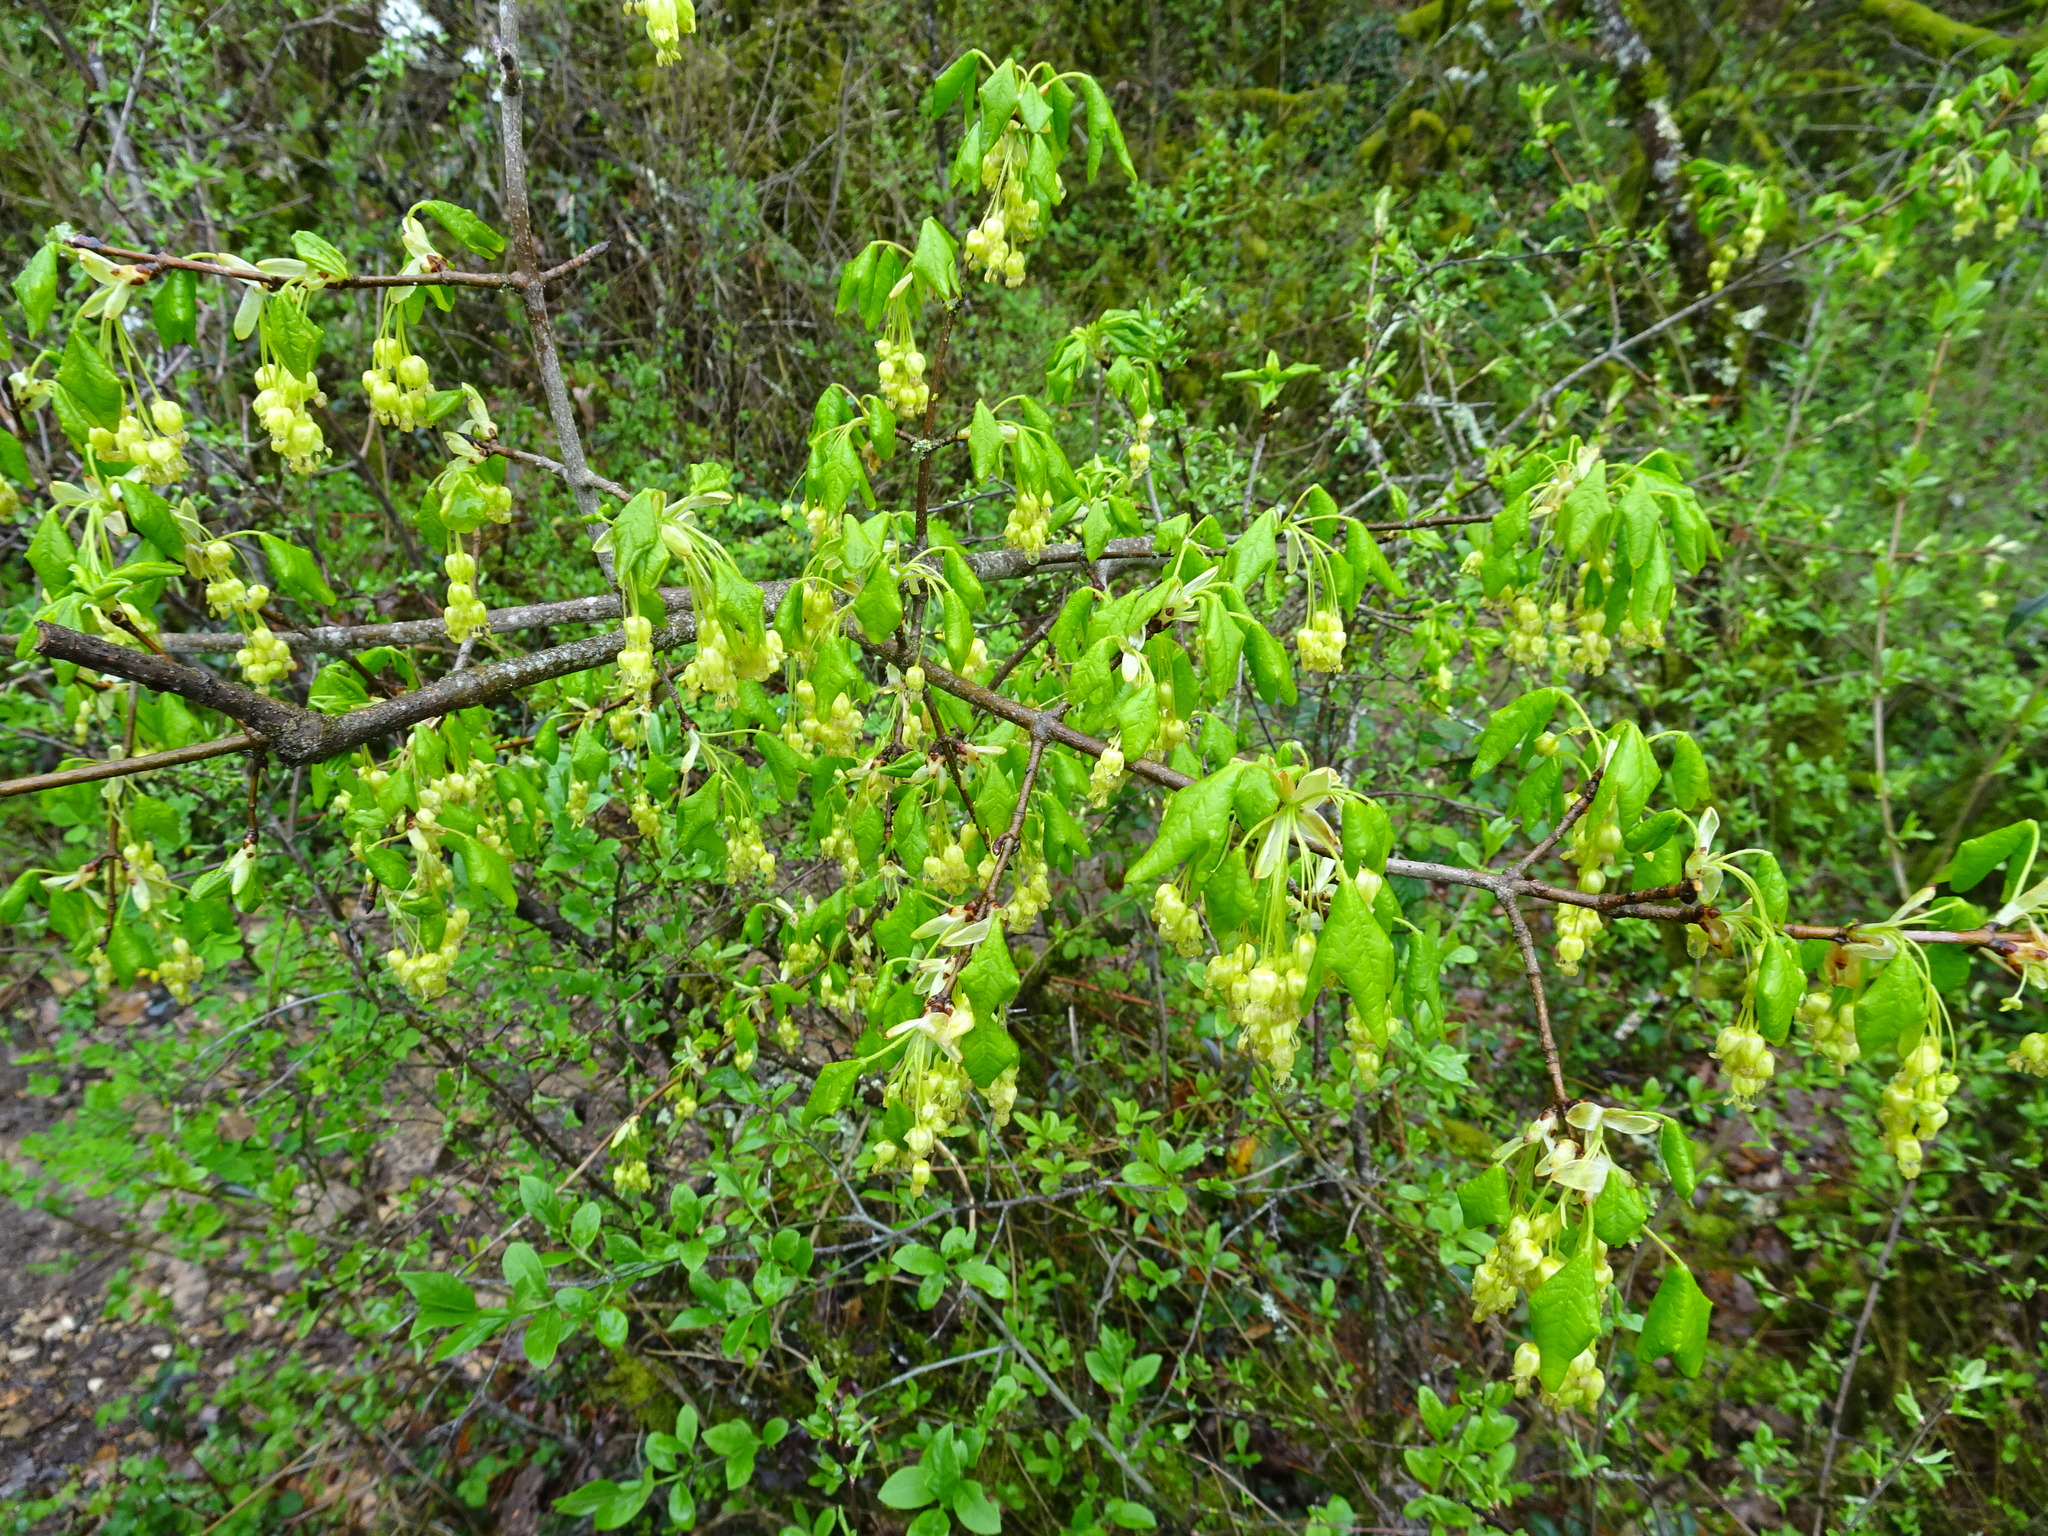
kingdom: Plantae
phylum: Tracheophyta
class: Magnoliopsida
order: Sapindales
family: Sapindaceae
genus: Acer
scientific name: Acer monspessulanum
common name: Montpellier maple
